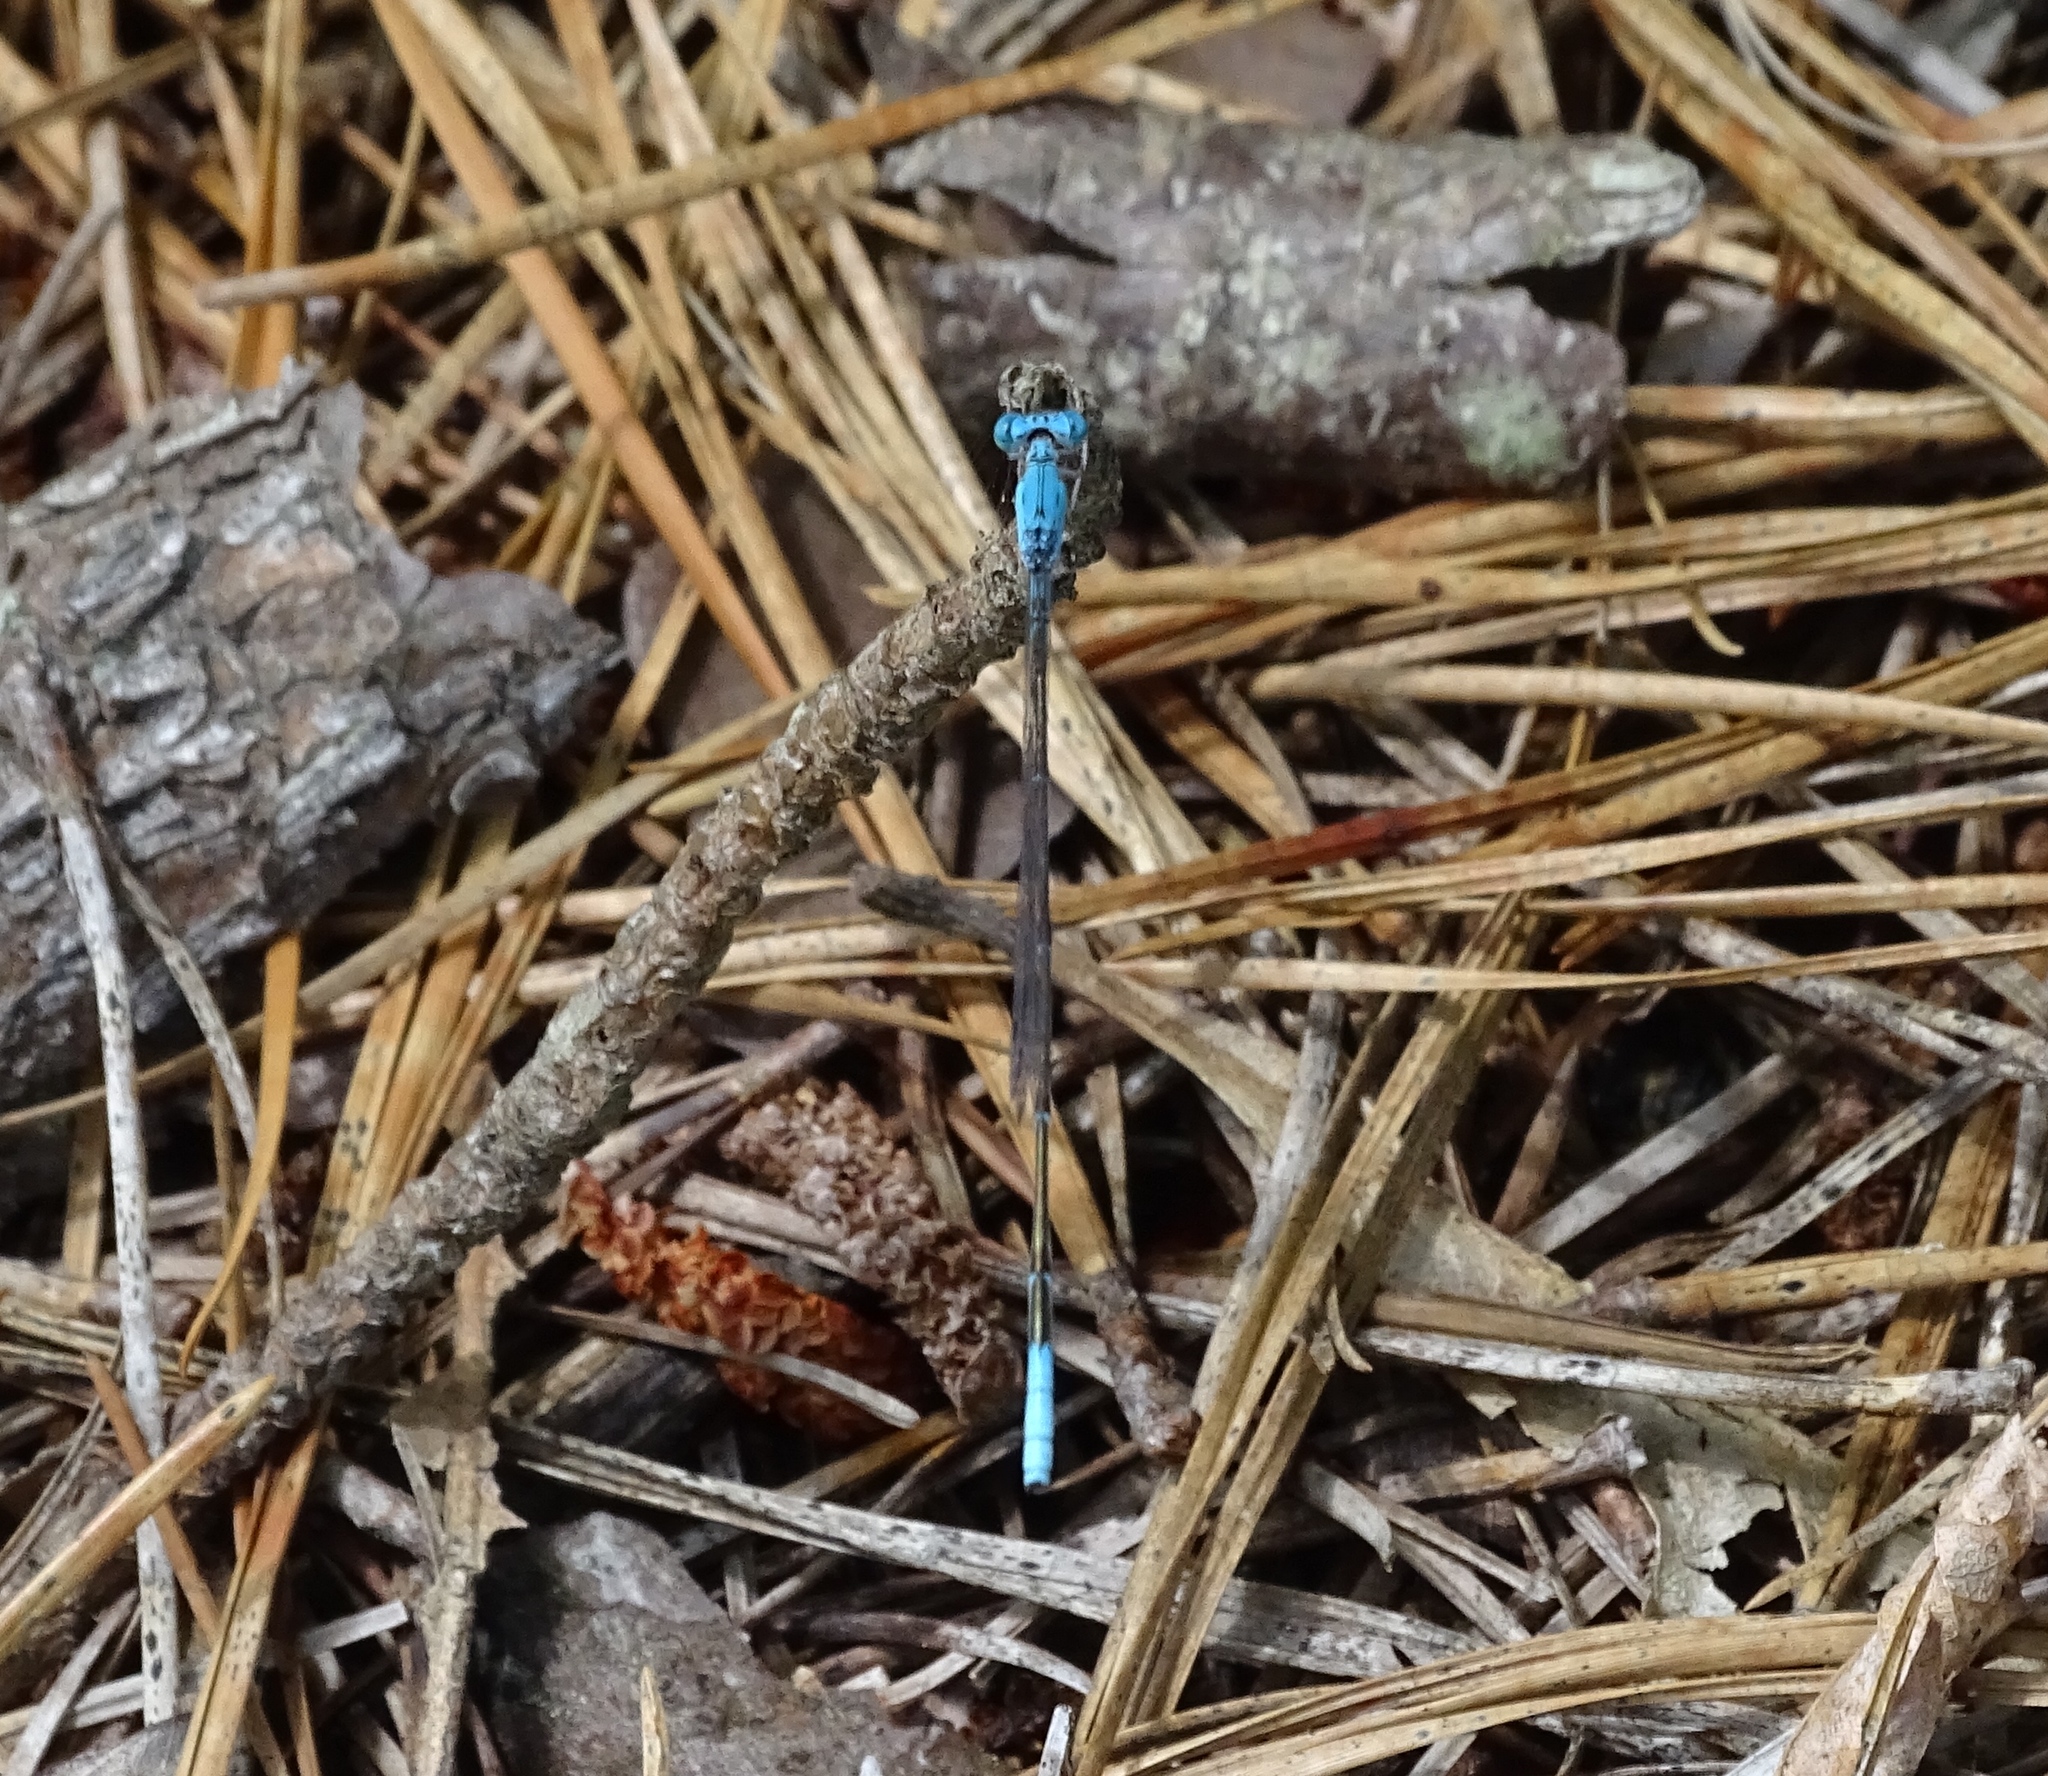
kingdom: Animalia
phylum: Arthropoda
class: Insecta
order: Odonata
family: Coenagrionidae
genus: Enallagma
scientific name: Enallagma daeckii
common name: Attenuated bluet
